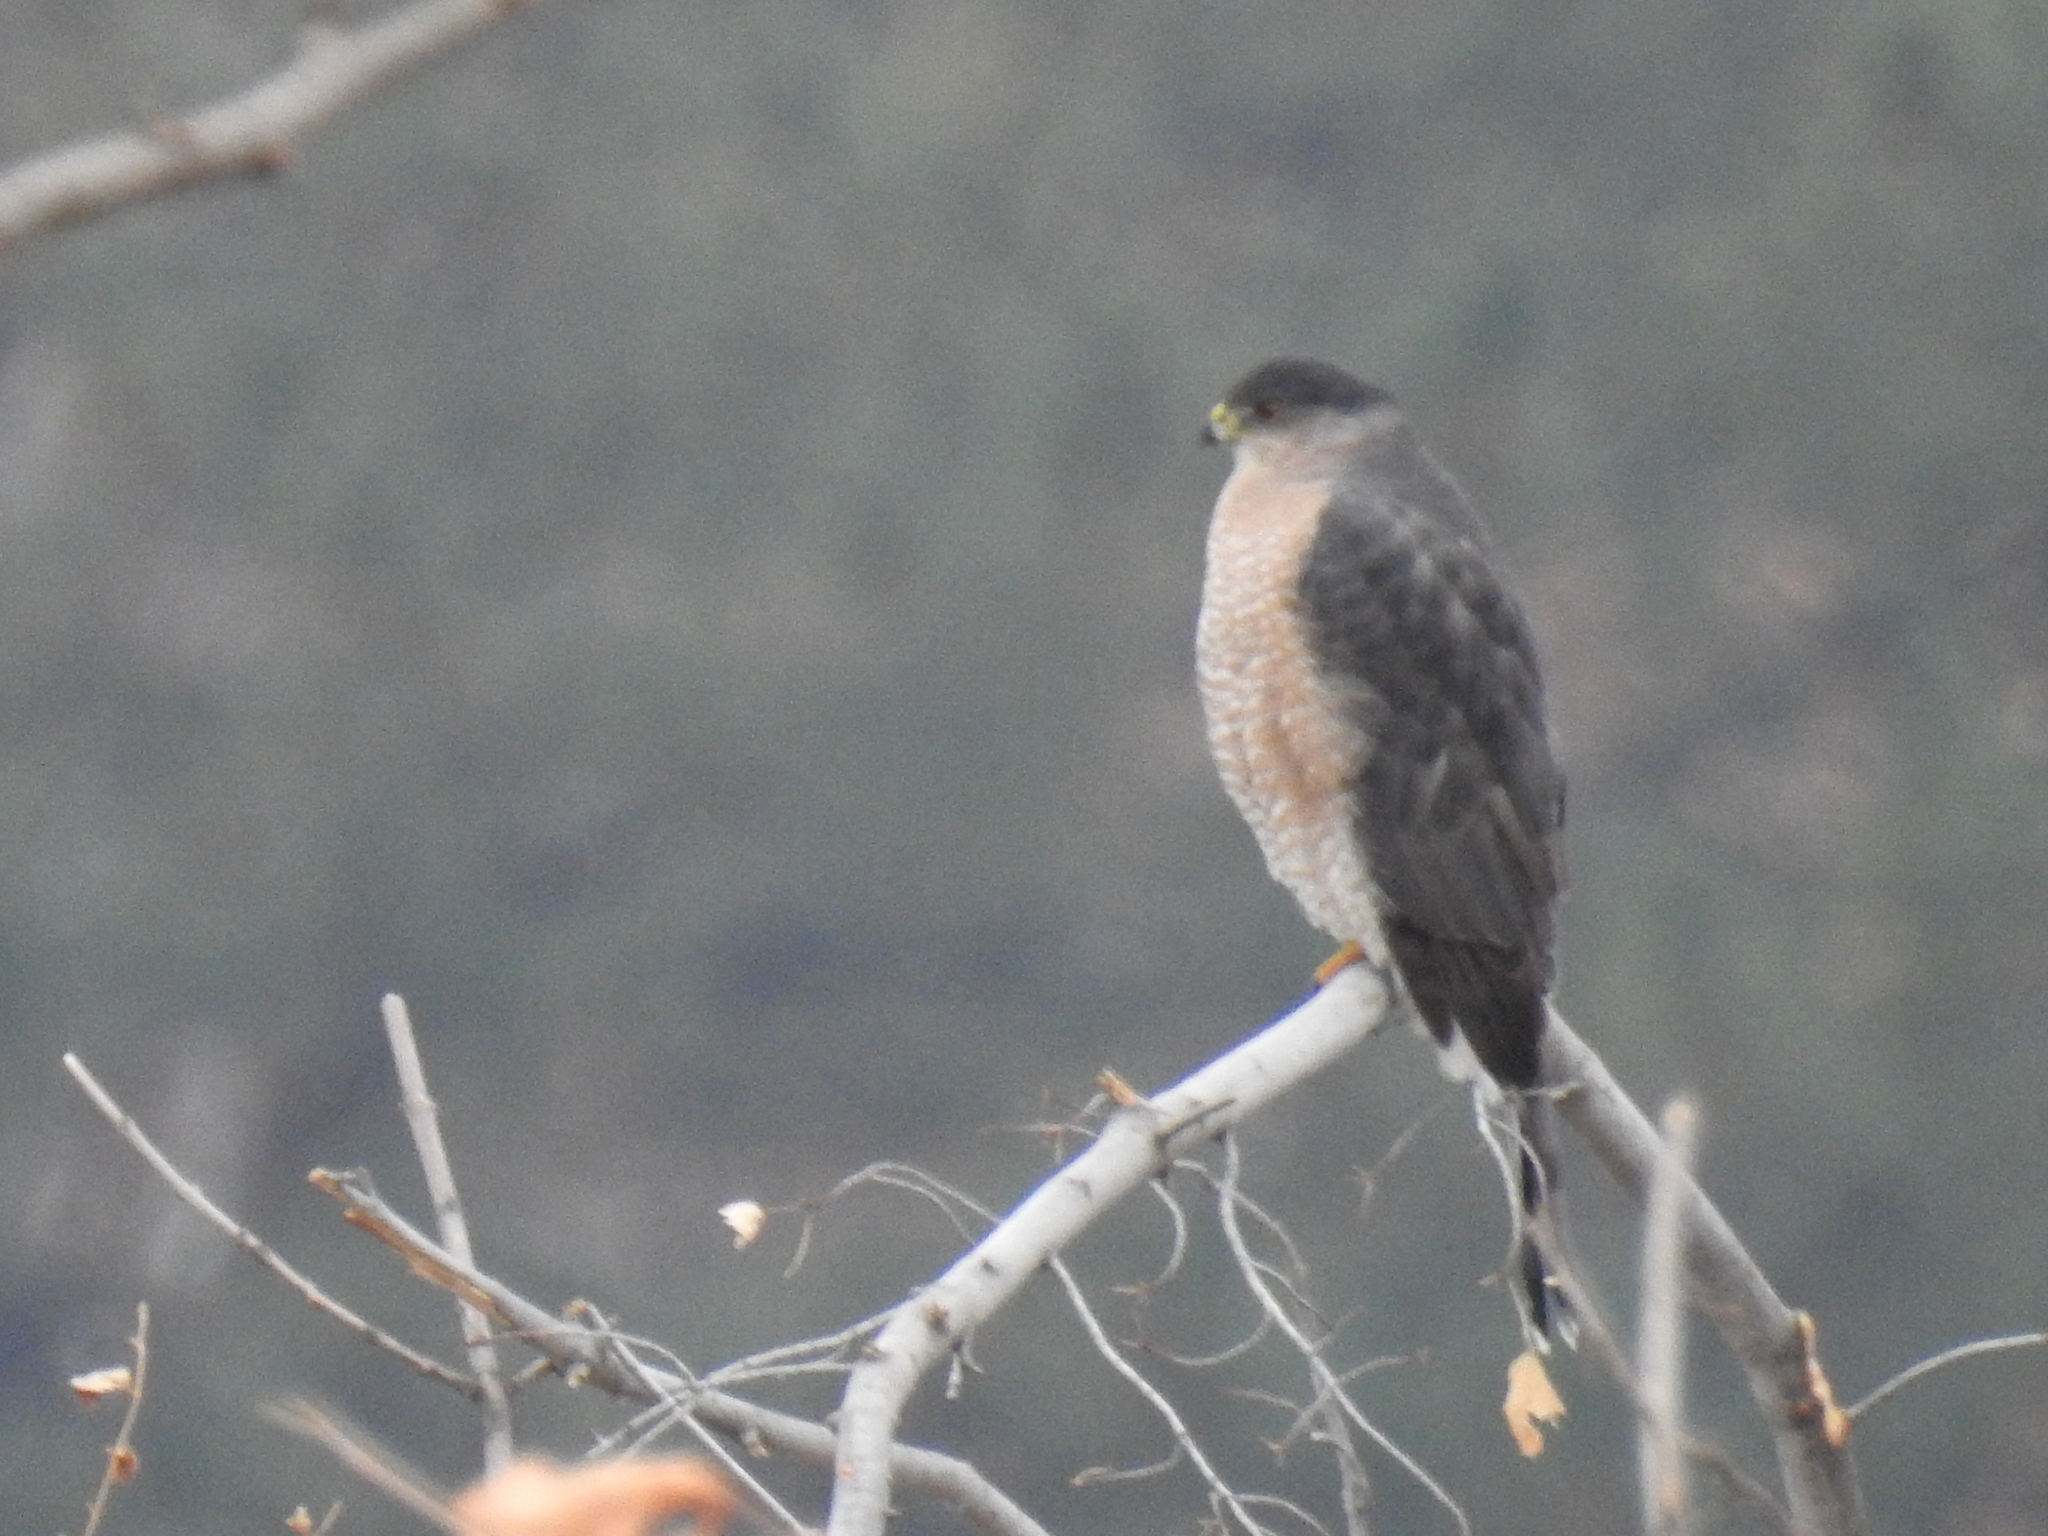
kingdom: Animalia
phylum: Chordata
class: Aves
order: Accipitriformes
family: Accipitridae
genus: Accipiter
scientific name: Accipiter cooperii
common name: Cooper's hawk
